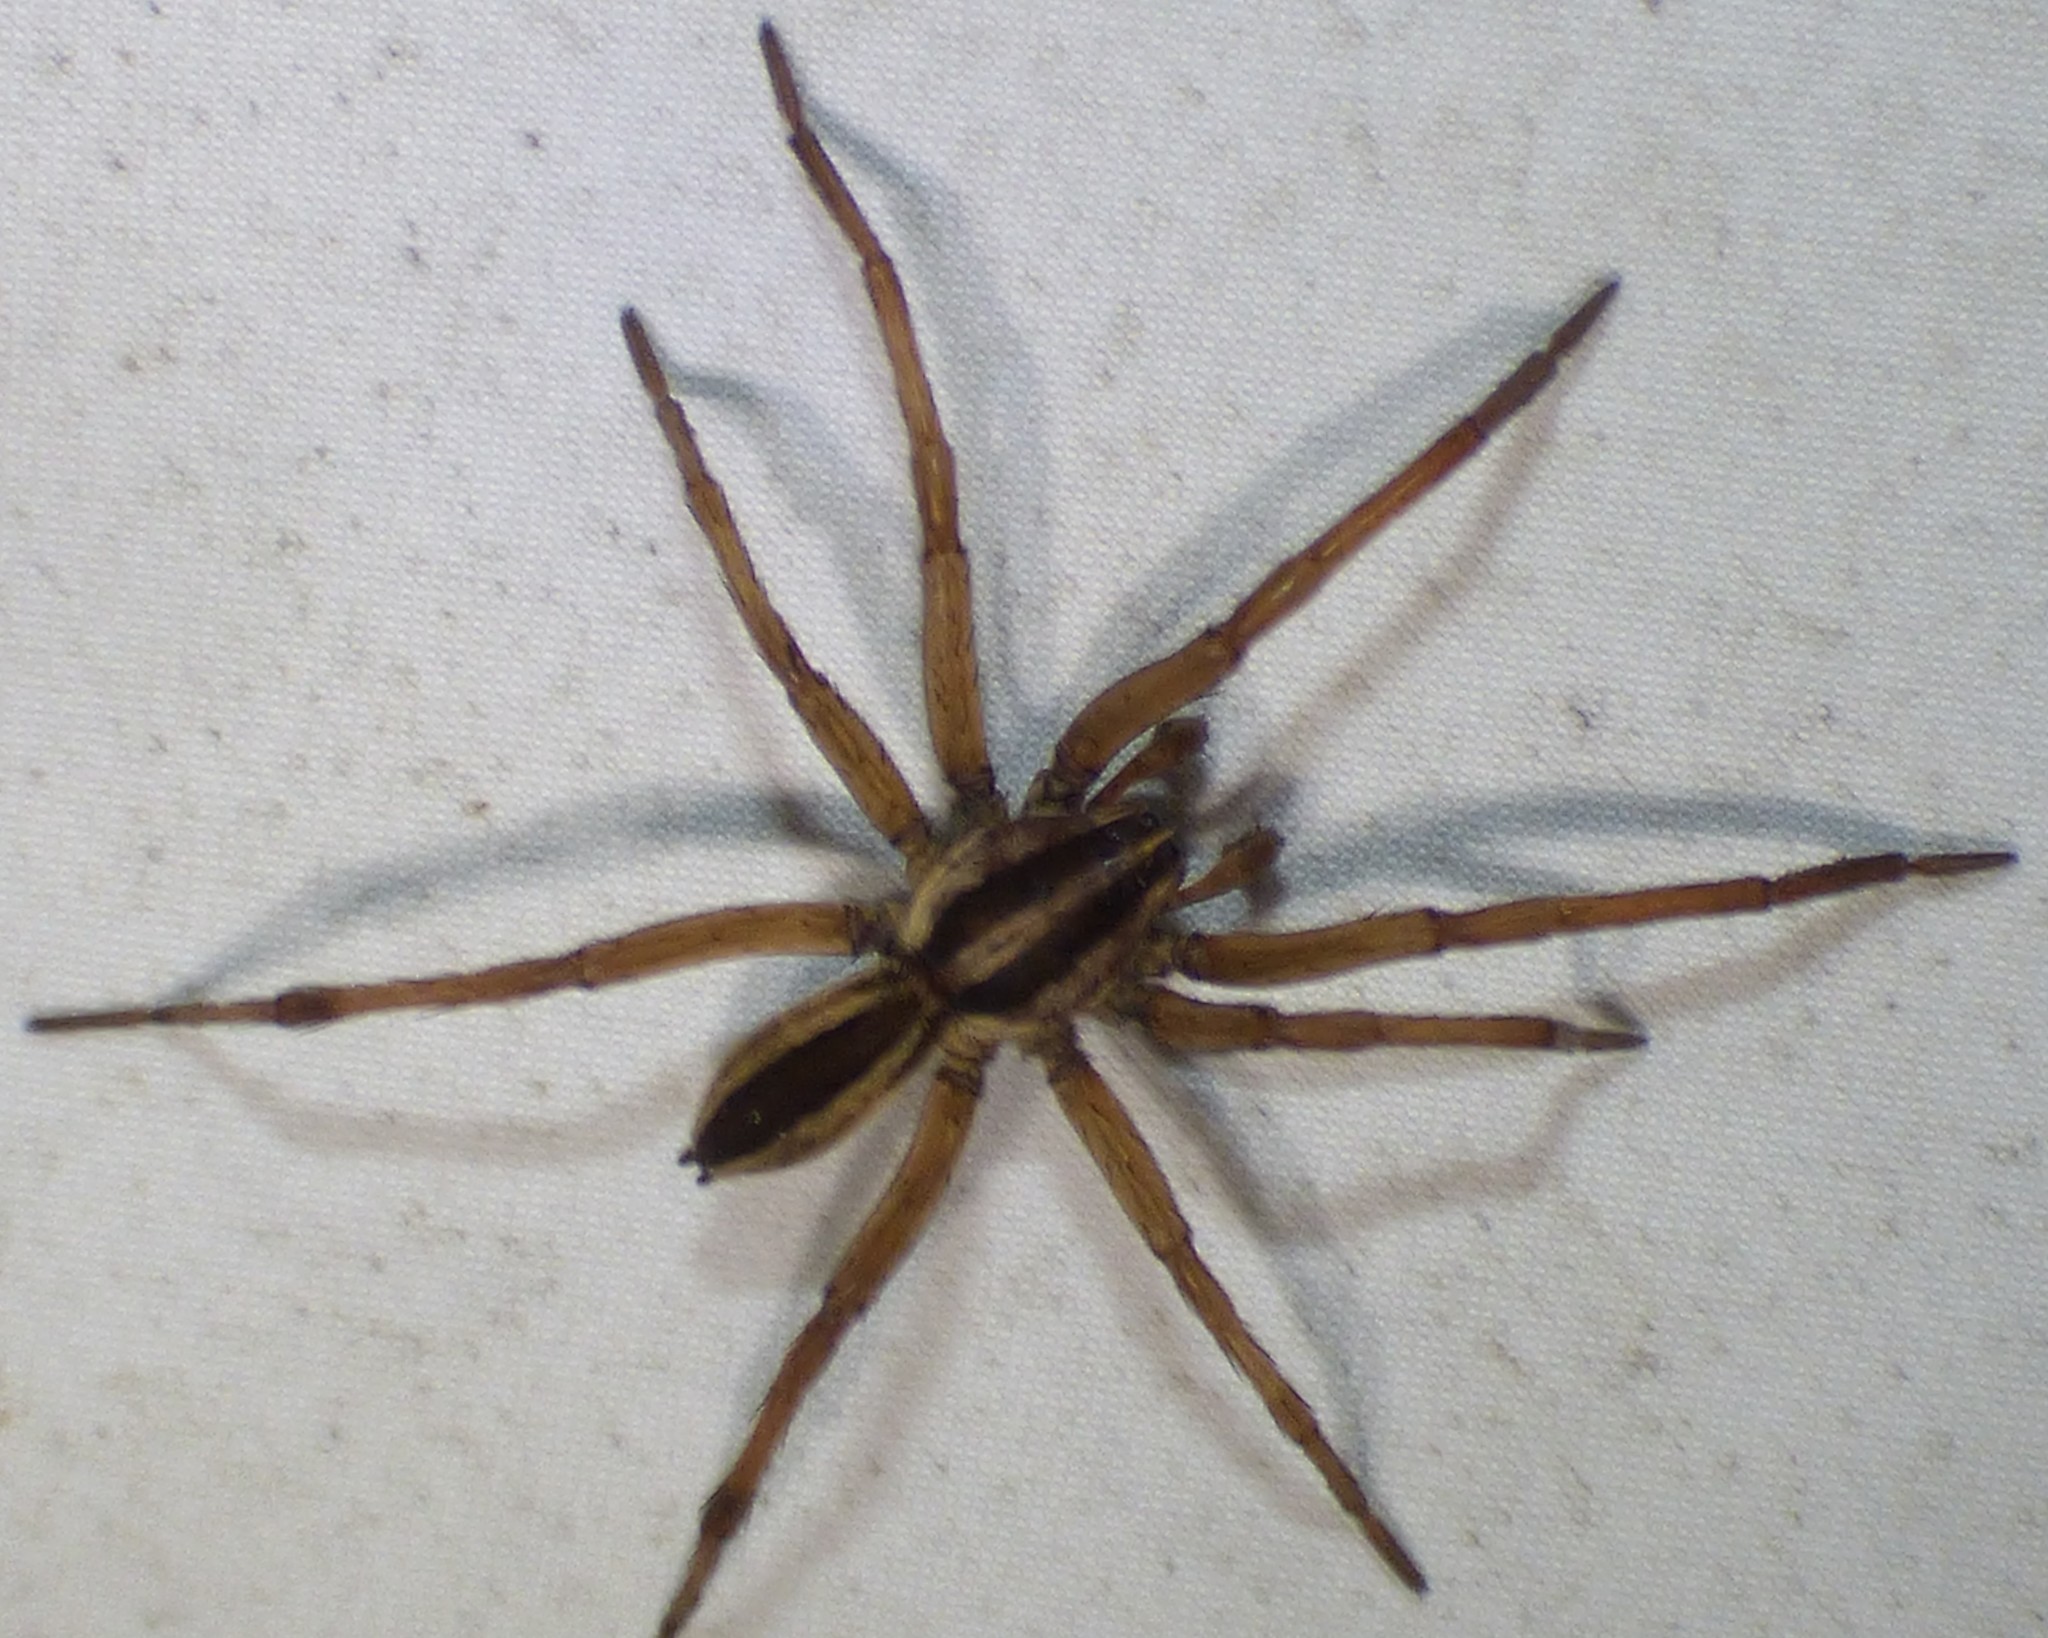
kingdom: Animalia
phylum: Arthropoda
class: Arachnida
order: Araneae
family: Lycosidae
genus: Rabidosa
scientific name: Rabidosa punctulata
